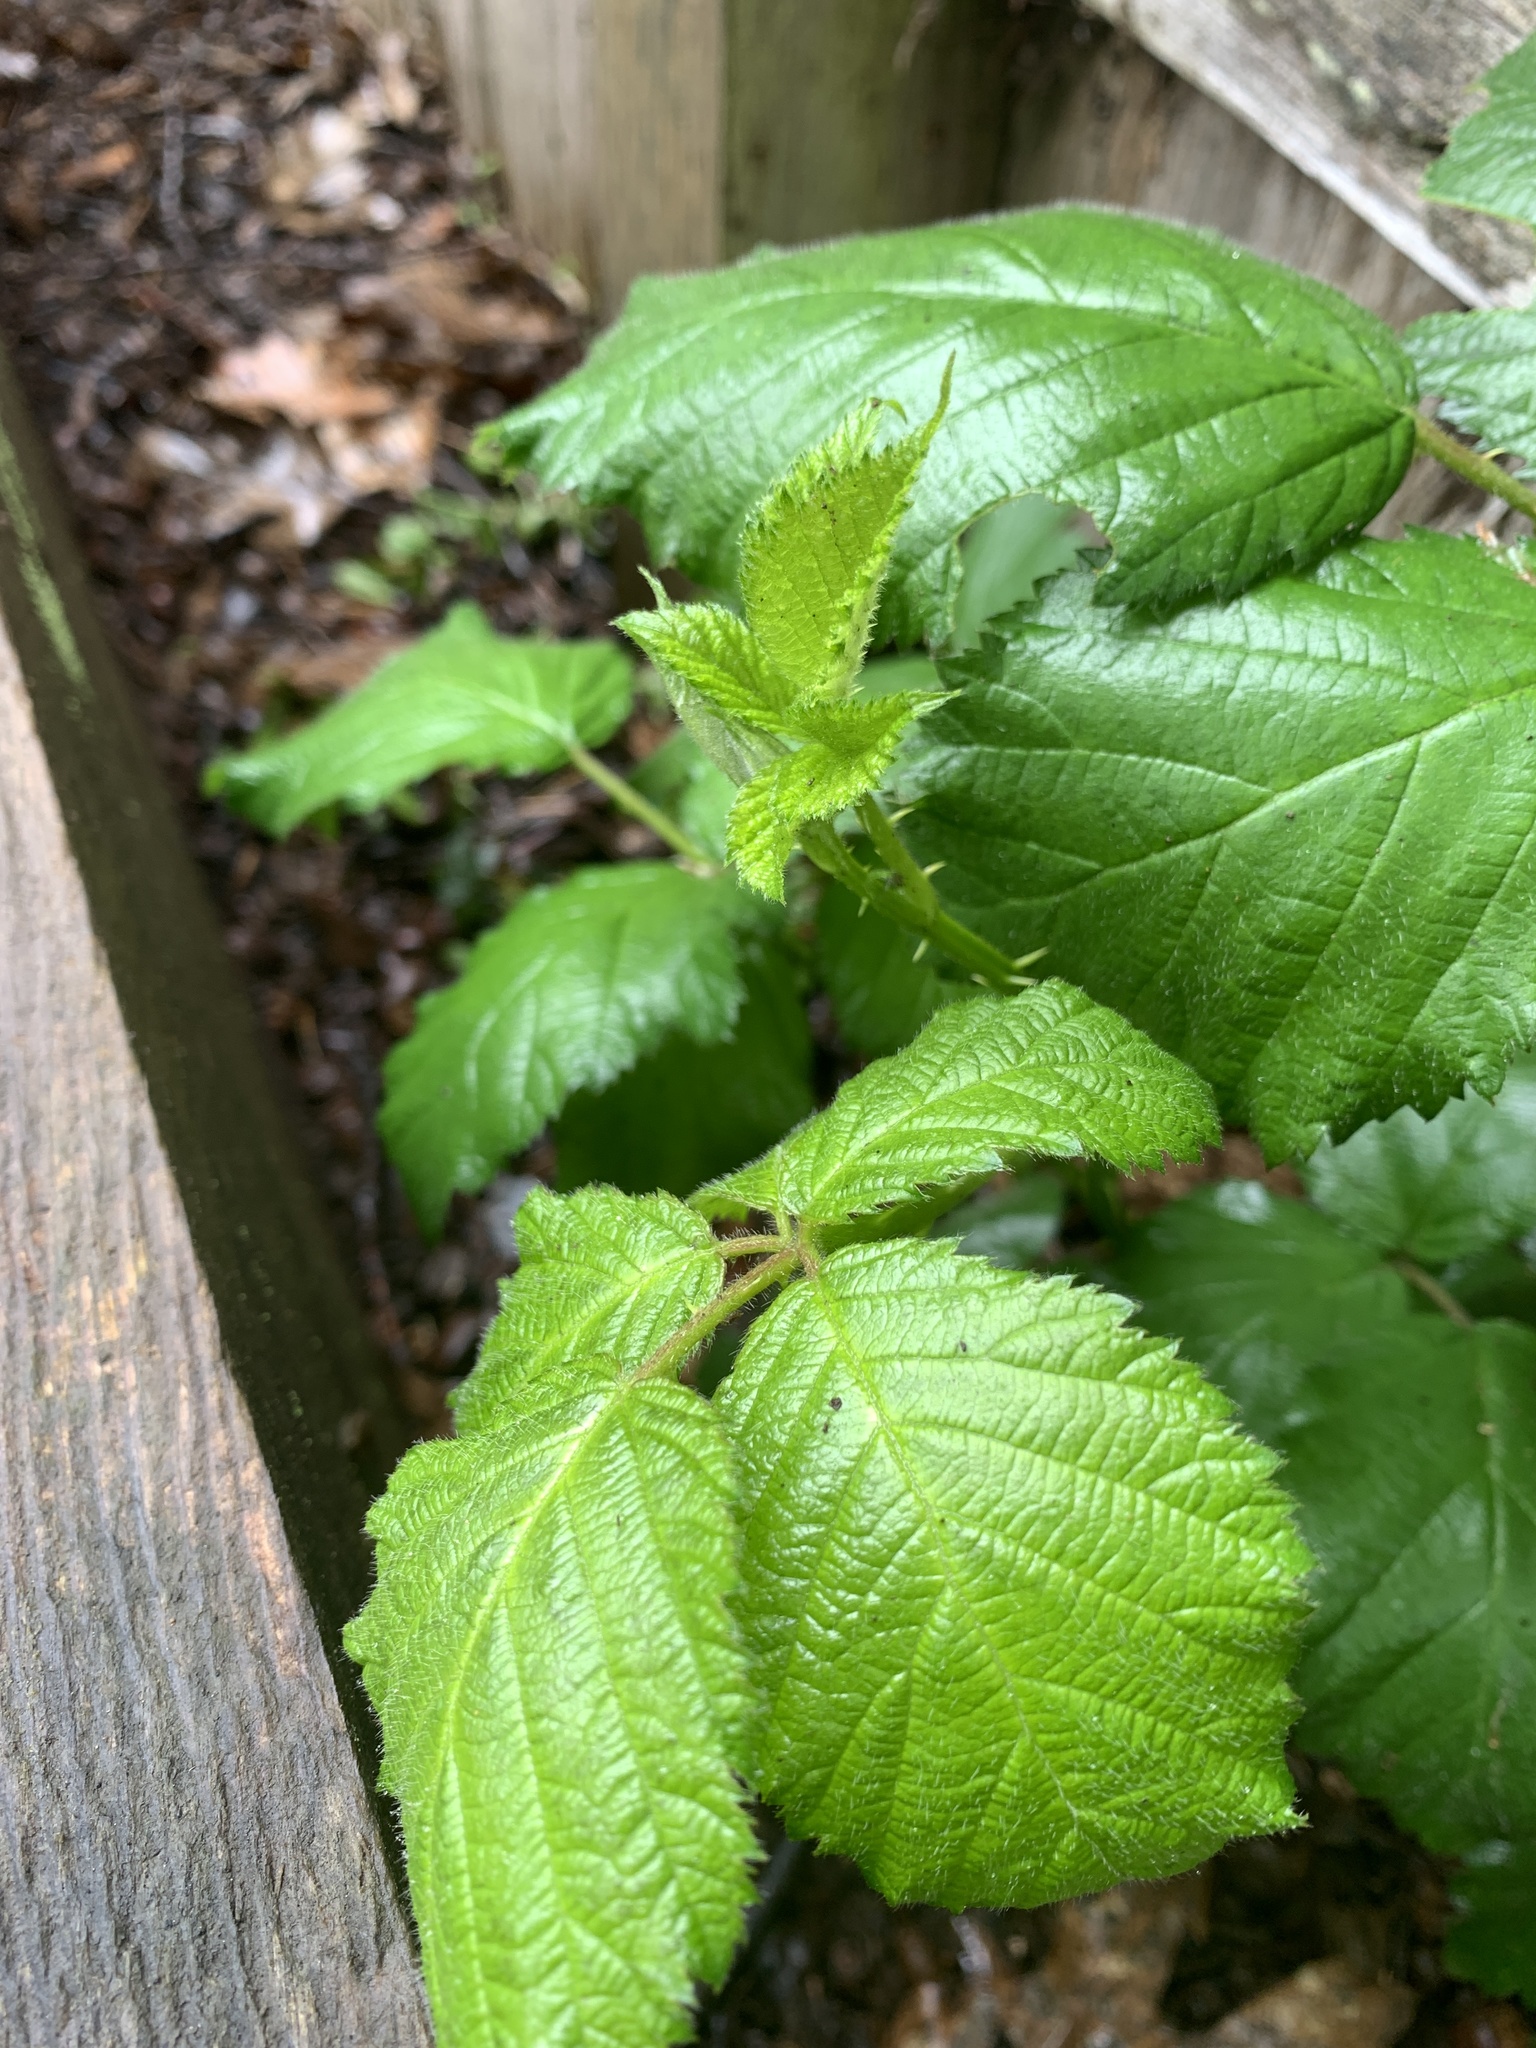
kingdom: Plantae
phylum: Tracheophyta
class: Magnoliopsida
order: Rosales
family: Rosaceae
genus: Rubus
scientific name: Rubus armeniacus
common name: Himalayan blackberry
